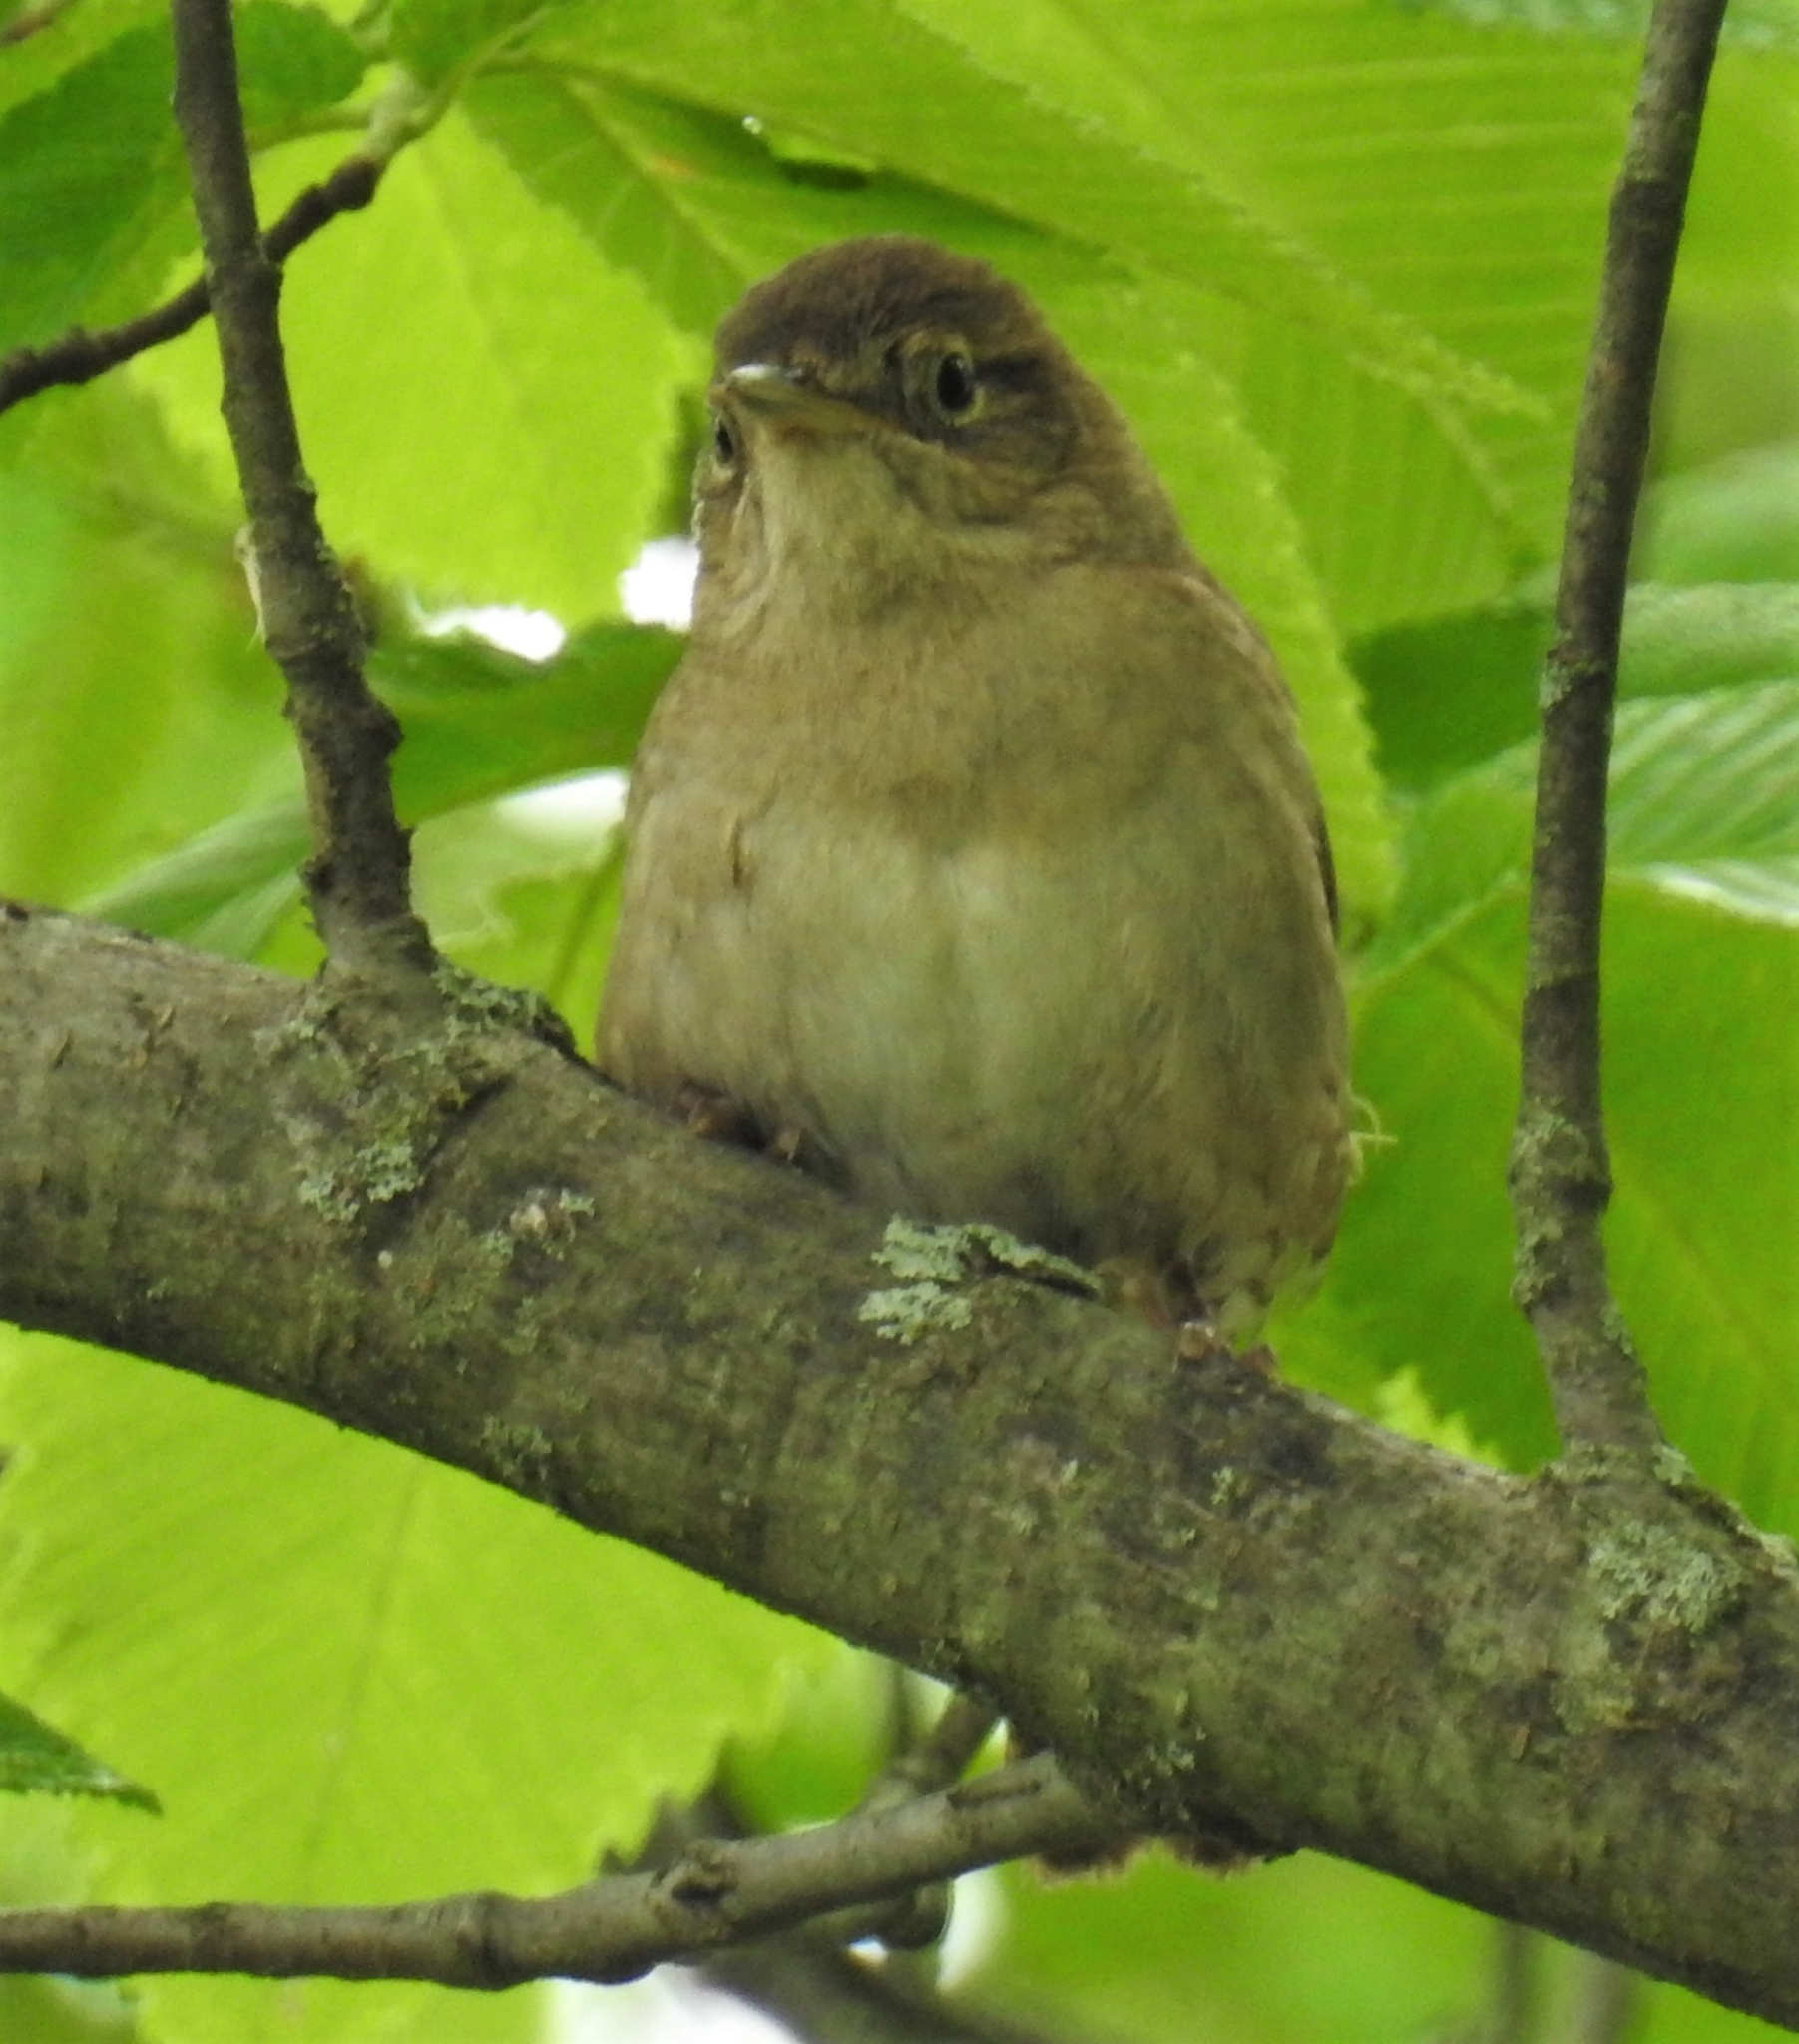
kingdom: Animalia
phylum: Chordata
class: Aves
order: Passeriformes
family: Troglodytidae
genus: Troglodytes
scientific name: Troglodytes aedon
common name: House wren
